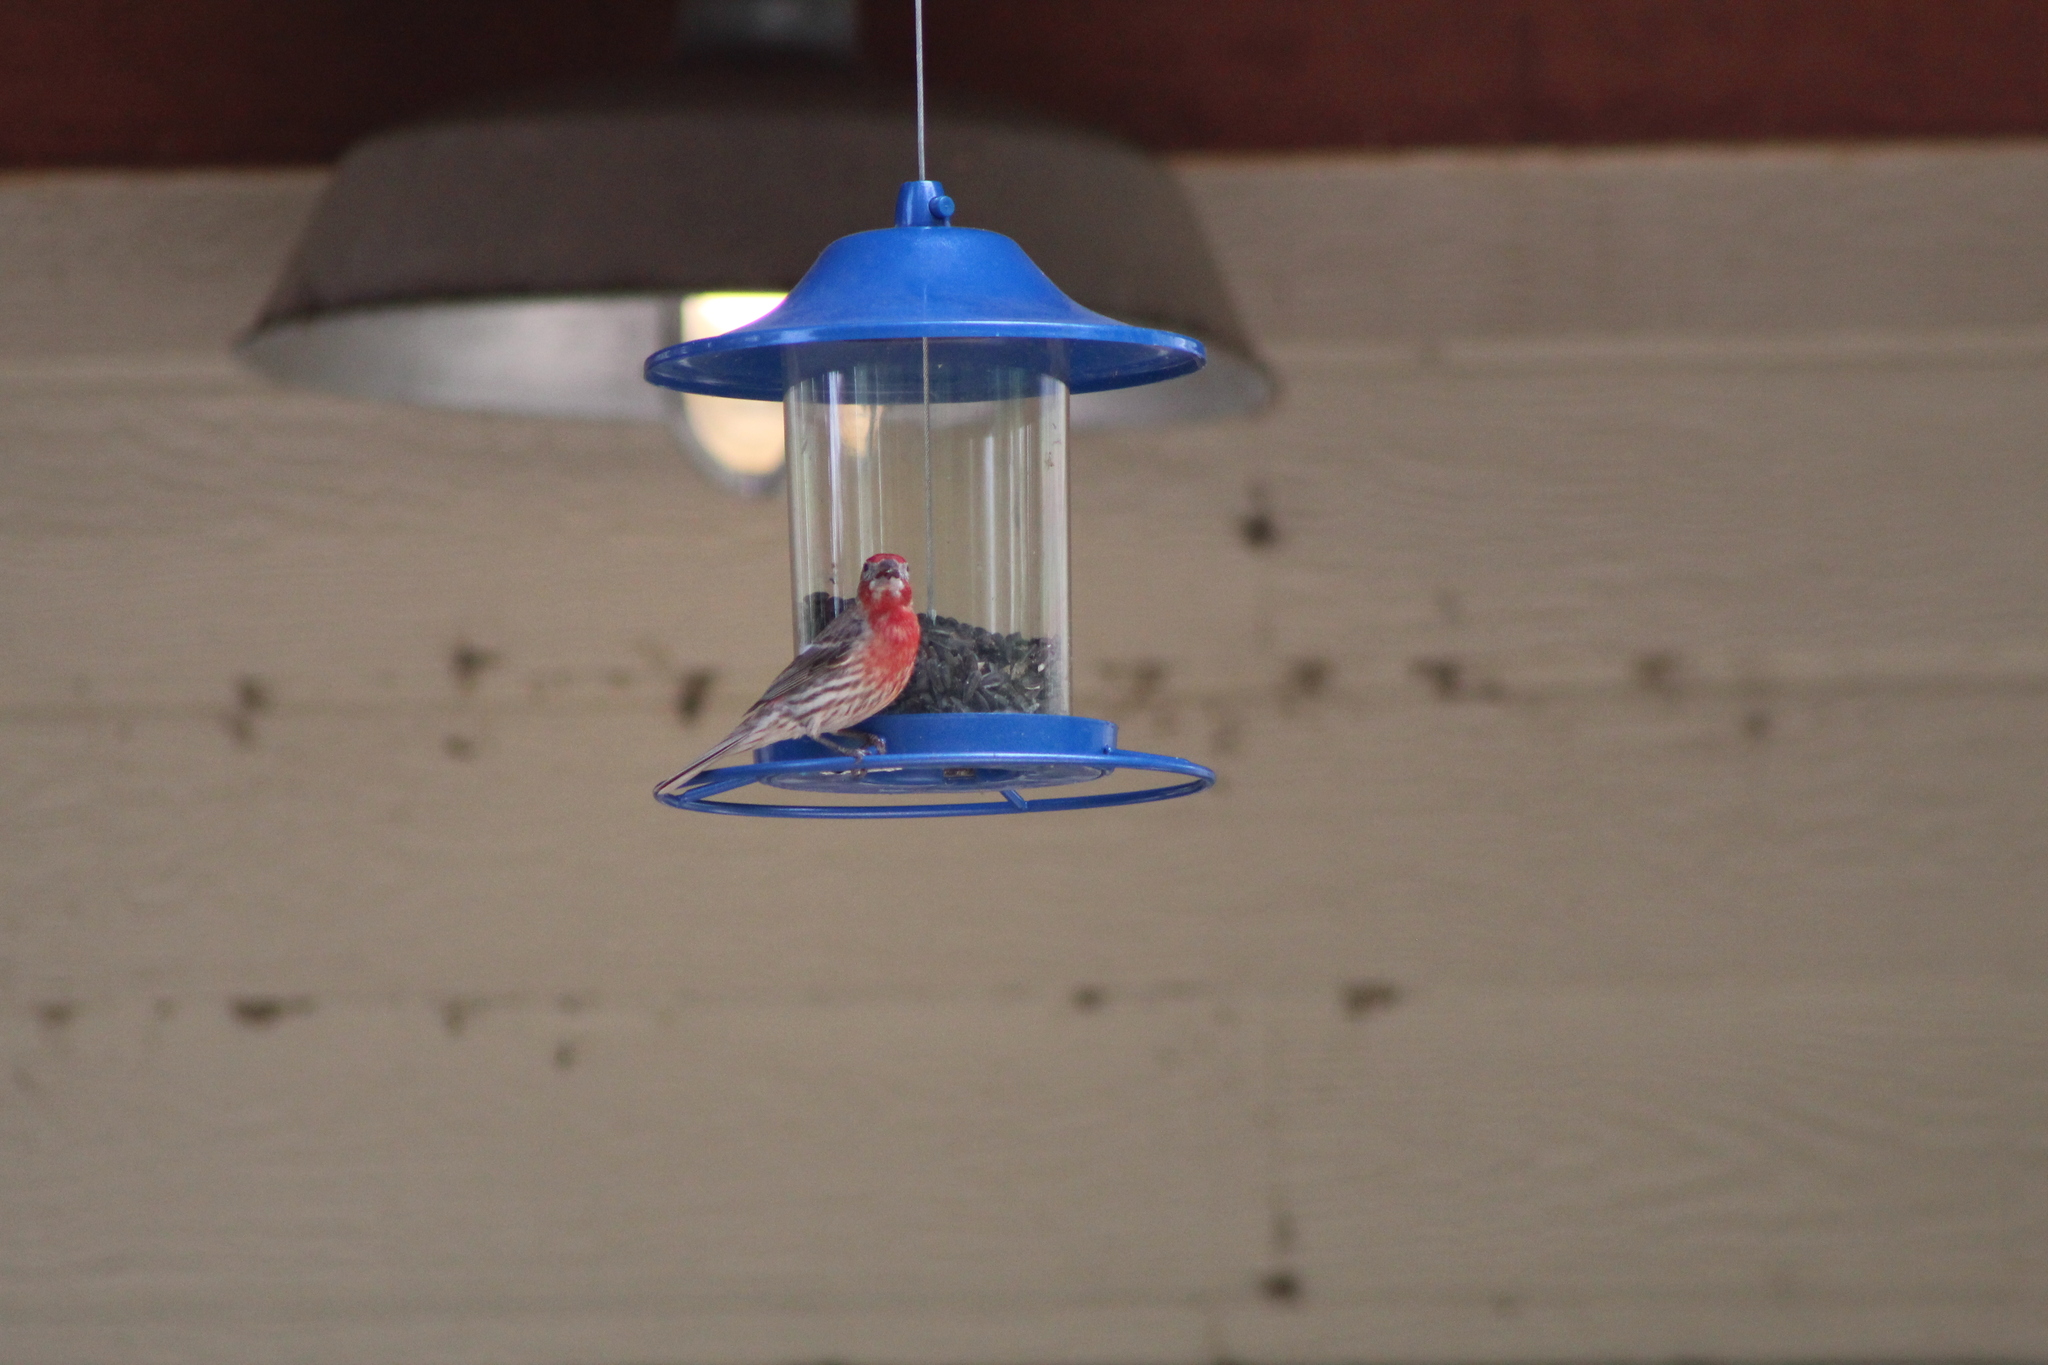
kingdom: Animalia
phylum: Chordata
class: Aves
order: Passeriformes
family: Fringillidae
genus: Haemorhous
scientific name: Haemorhous mexicanus
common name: House finch
